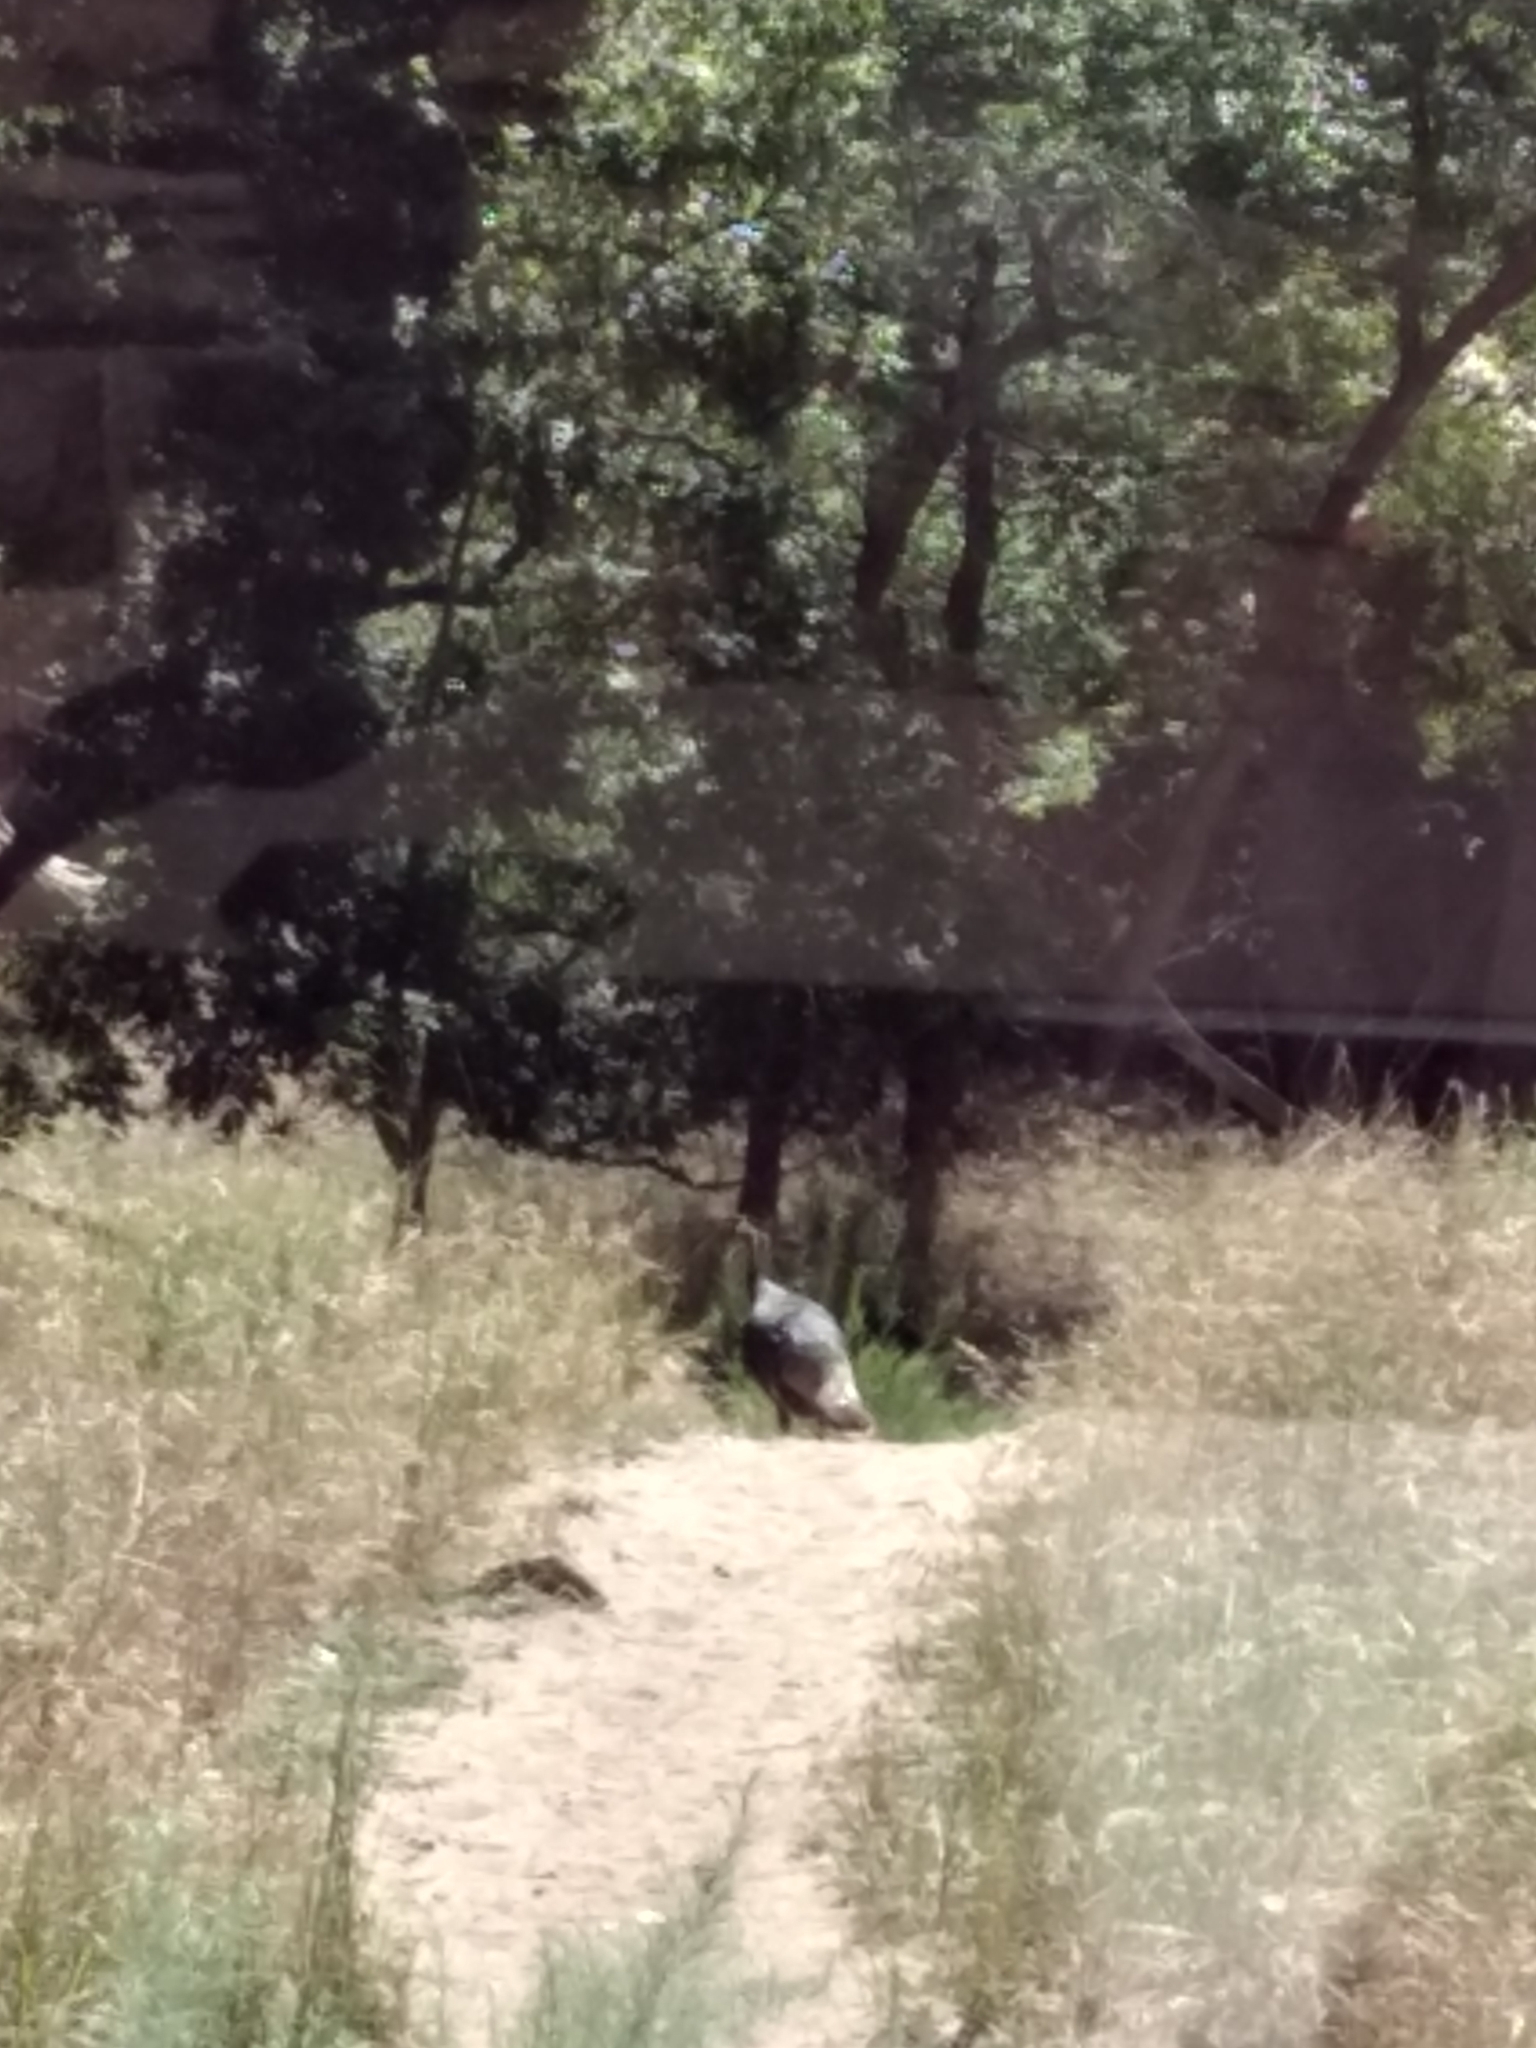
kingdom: Animalia
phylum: Chordata
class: Aves
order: Galliformes
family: Phasianidae
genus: Meleagris
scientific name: Meleagris gallopavo
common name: Wild turkey
